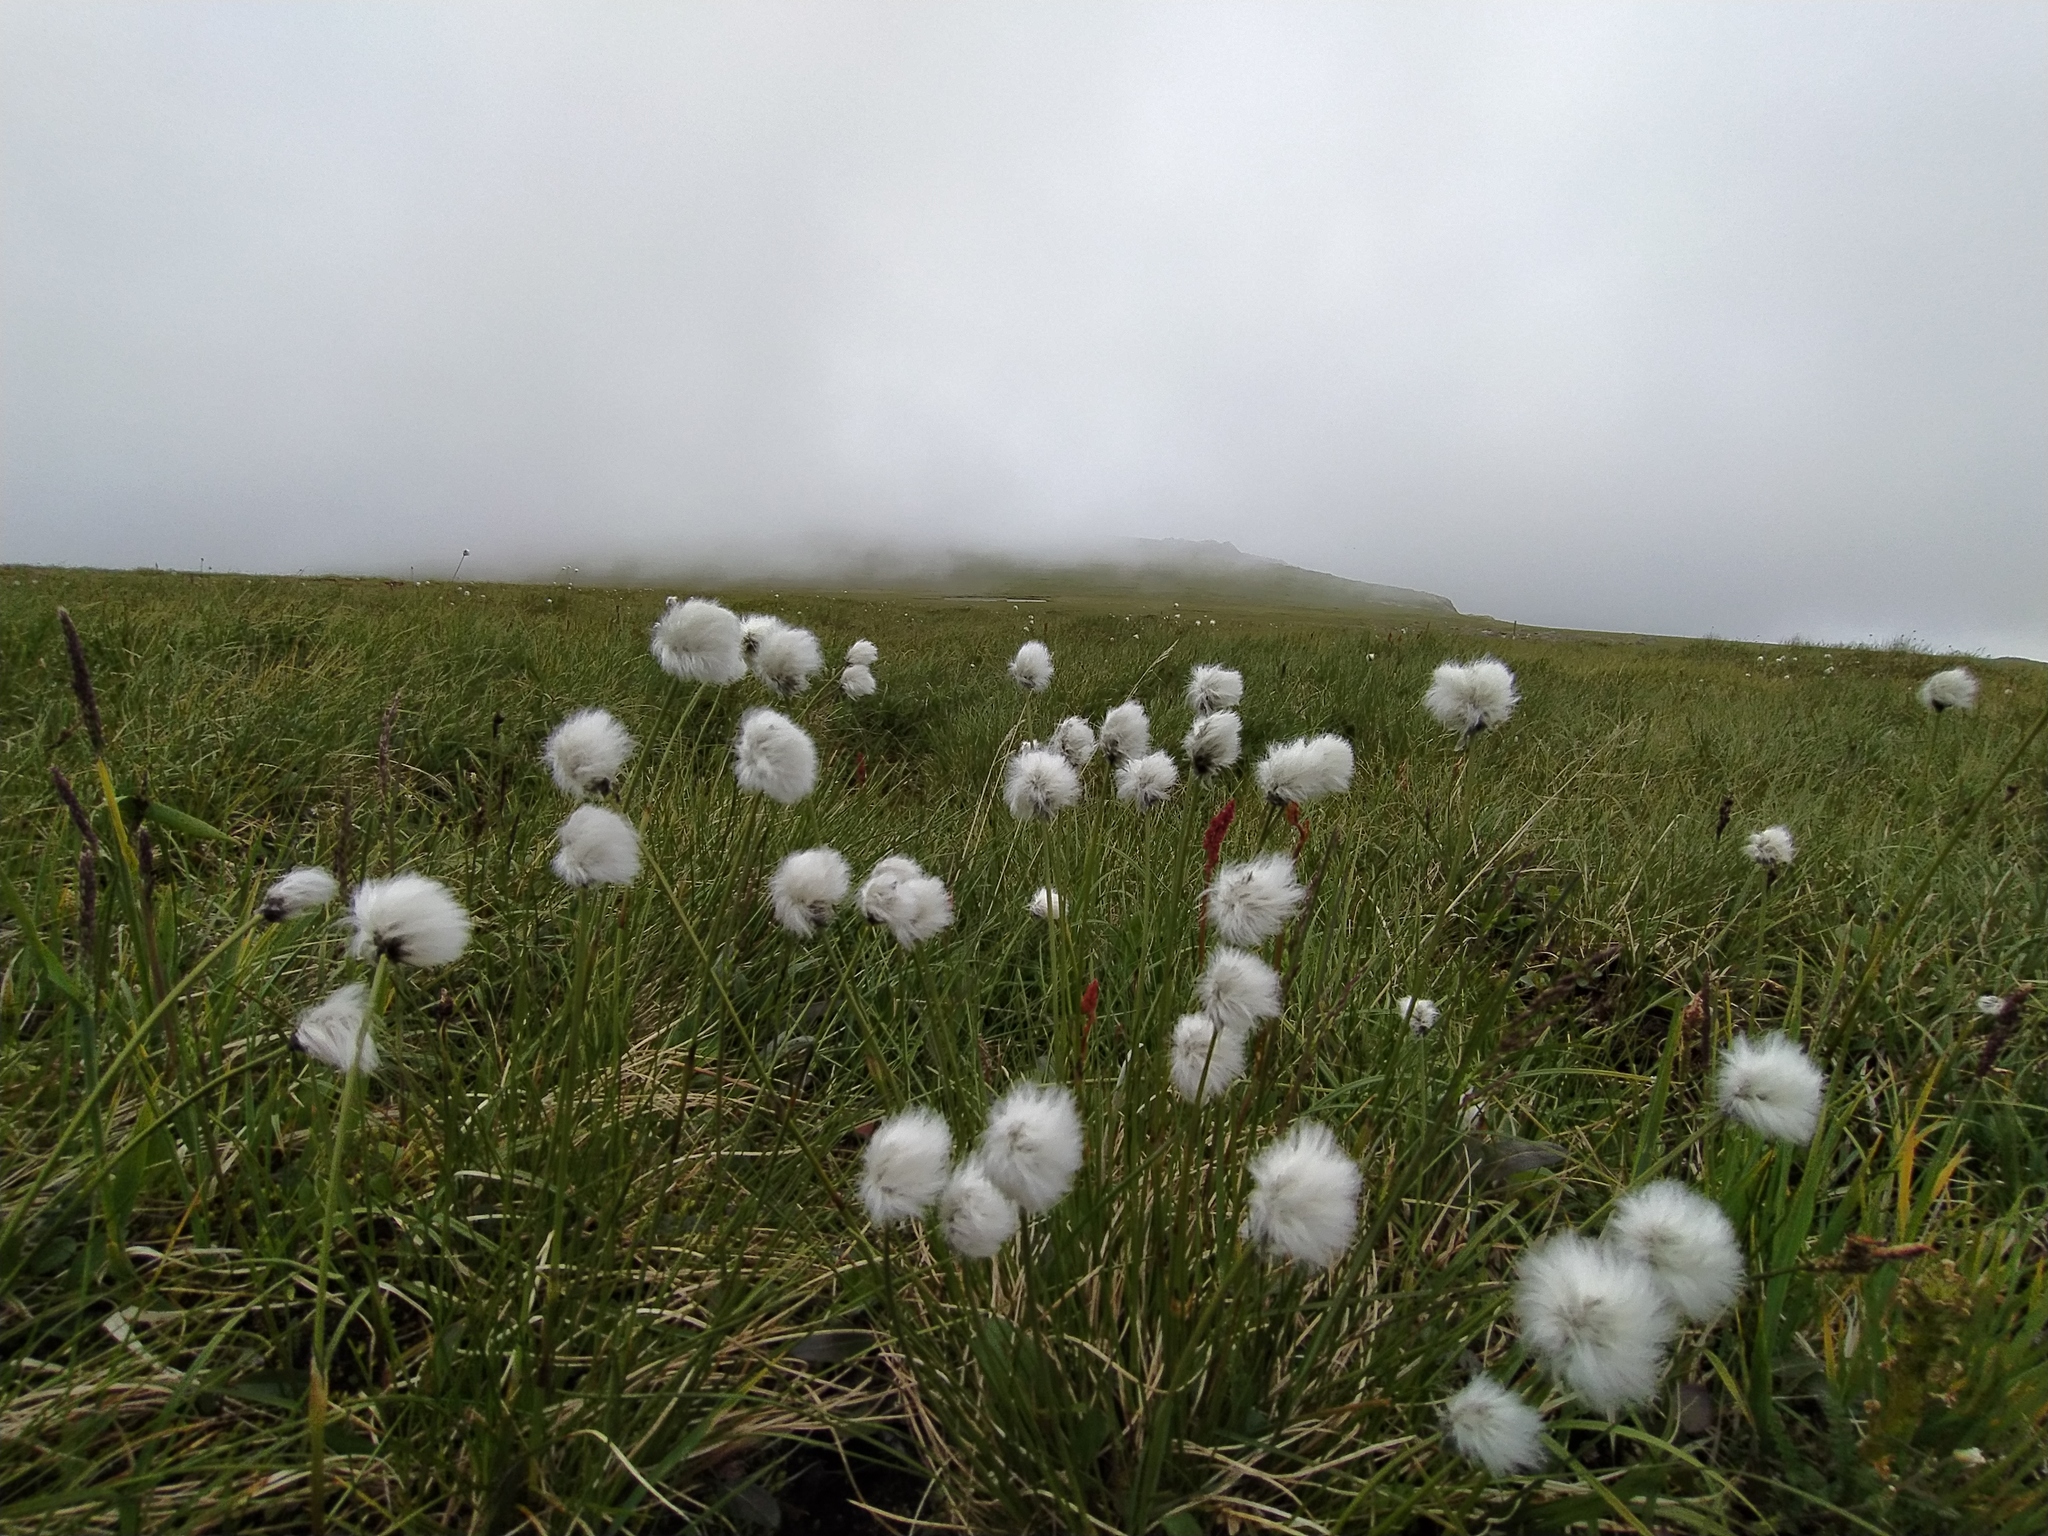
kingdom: Plantae
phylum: Tracheophyta
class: Liliopsida
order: Poales
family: Cyperaceae
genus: Eriophorum
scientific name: Eriophorum scheuchzeri
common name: Scheuchzer's cottongrass
